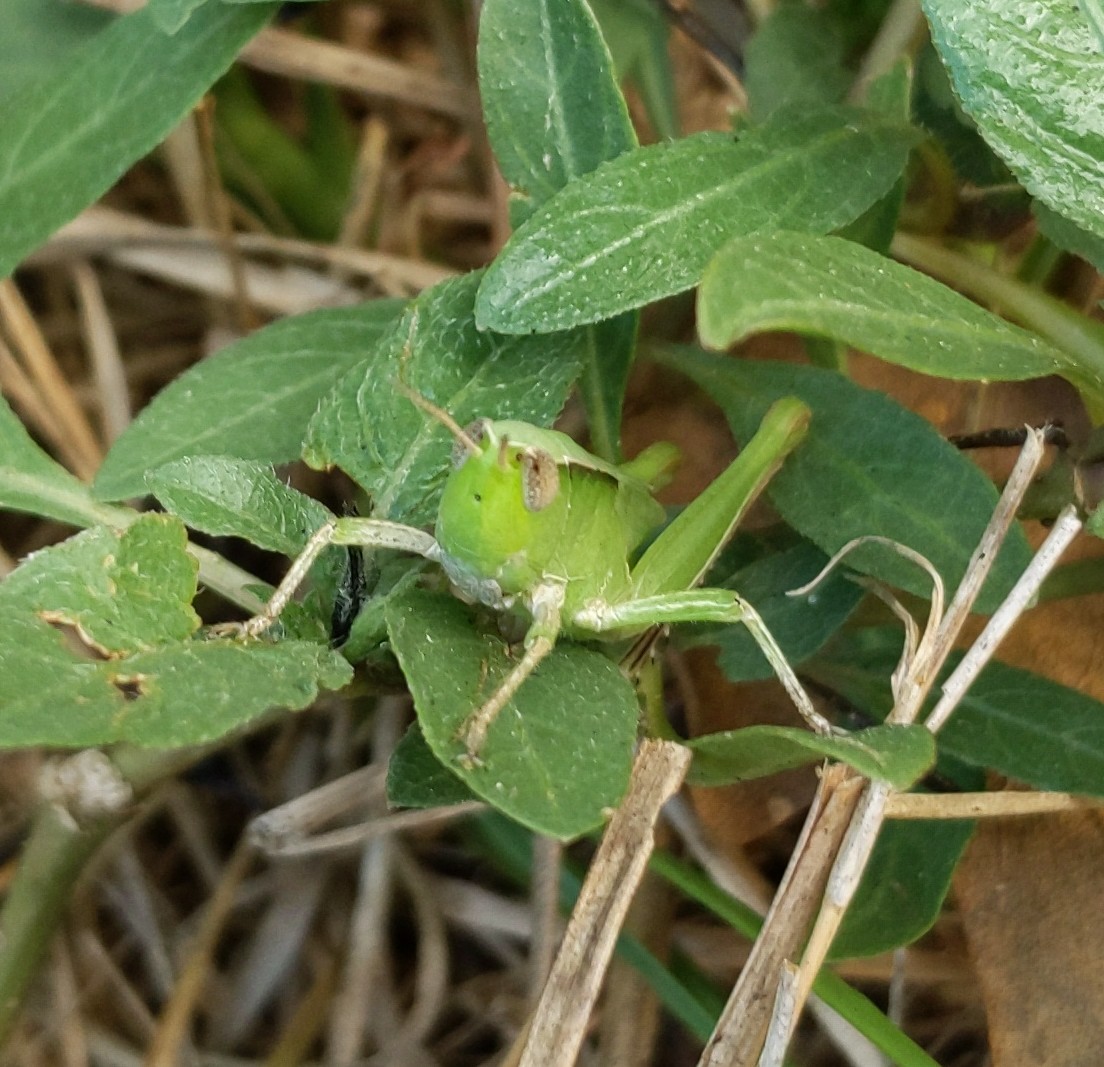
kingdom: Animalia
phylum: Arthropoda
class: Insecta
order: Orthoptera
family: Acrididae
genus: Dichromorpha
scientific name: Dichromorpha viridis
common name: Short-winged green grasshopper
